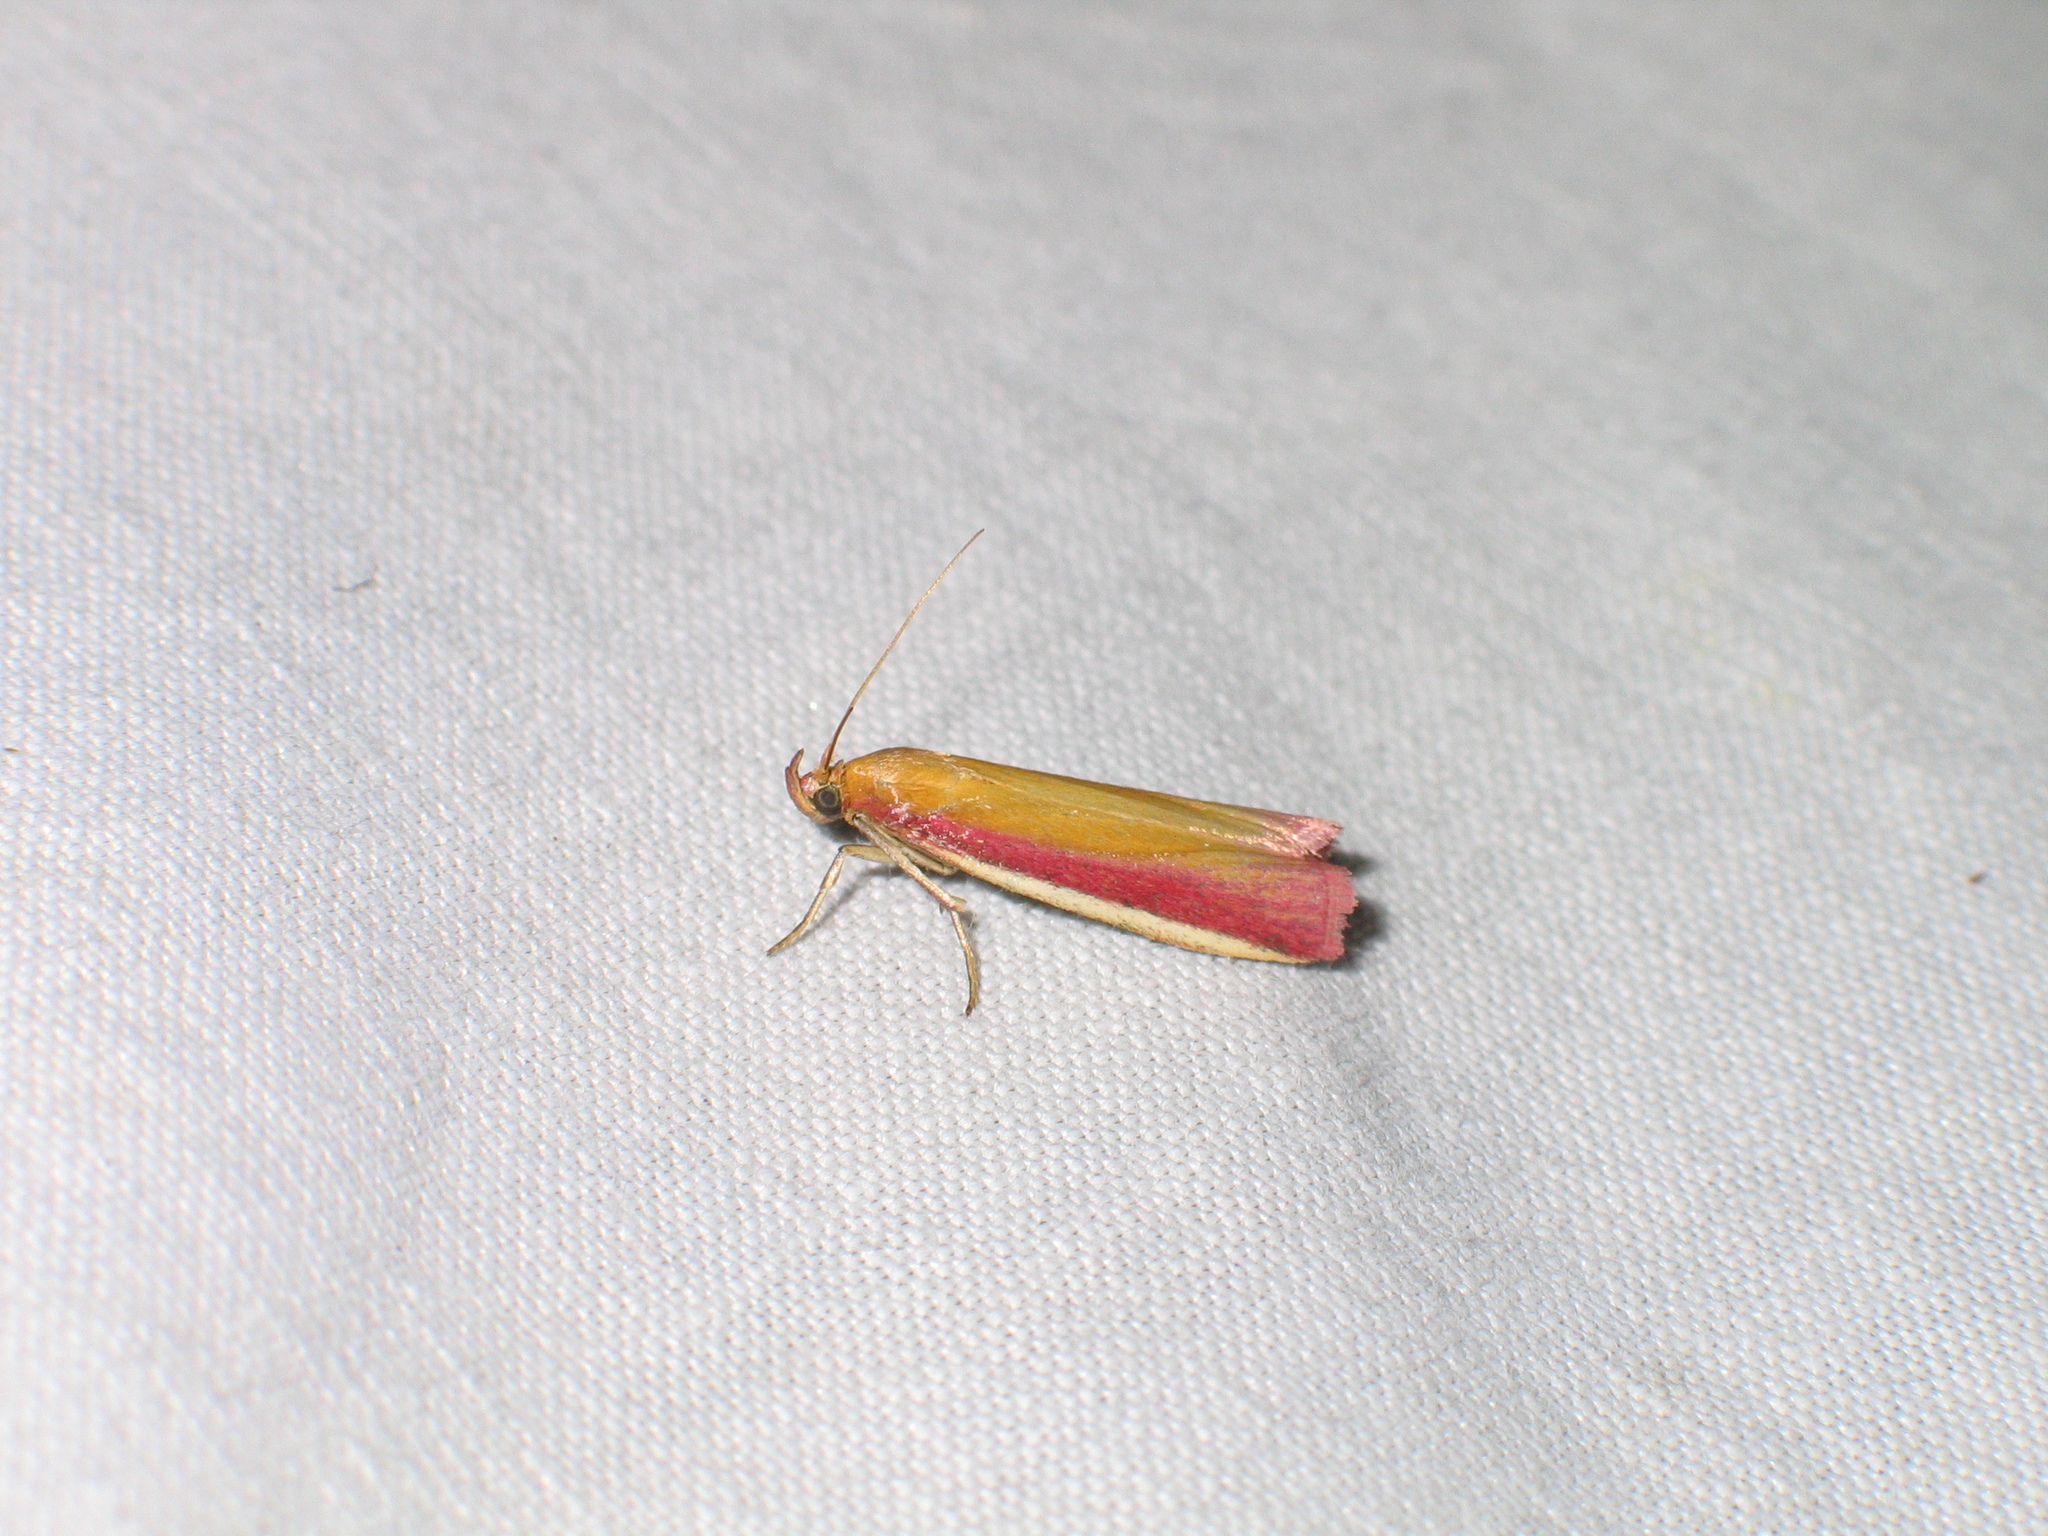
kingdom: Animalia
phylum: Arthropoda
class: Insecta
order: Lepidoptera
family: Pyralidae
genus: Oncocera
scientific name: Oncocera semirubella
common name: Rosy-striped knot-horn
